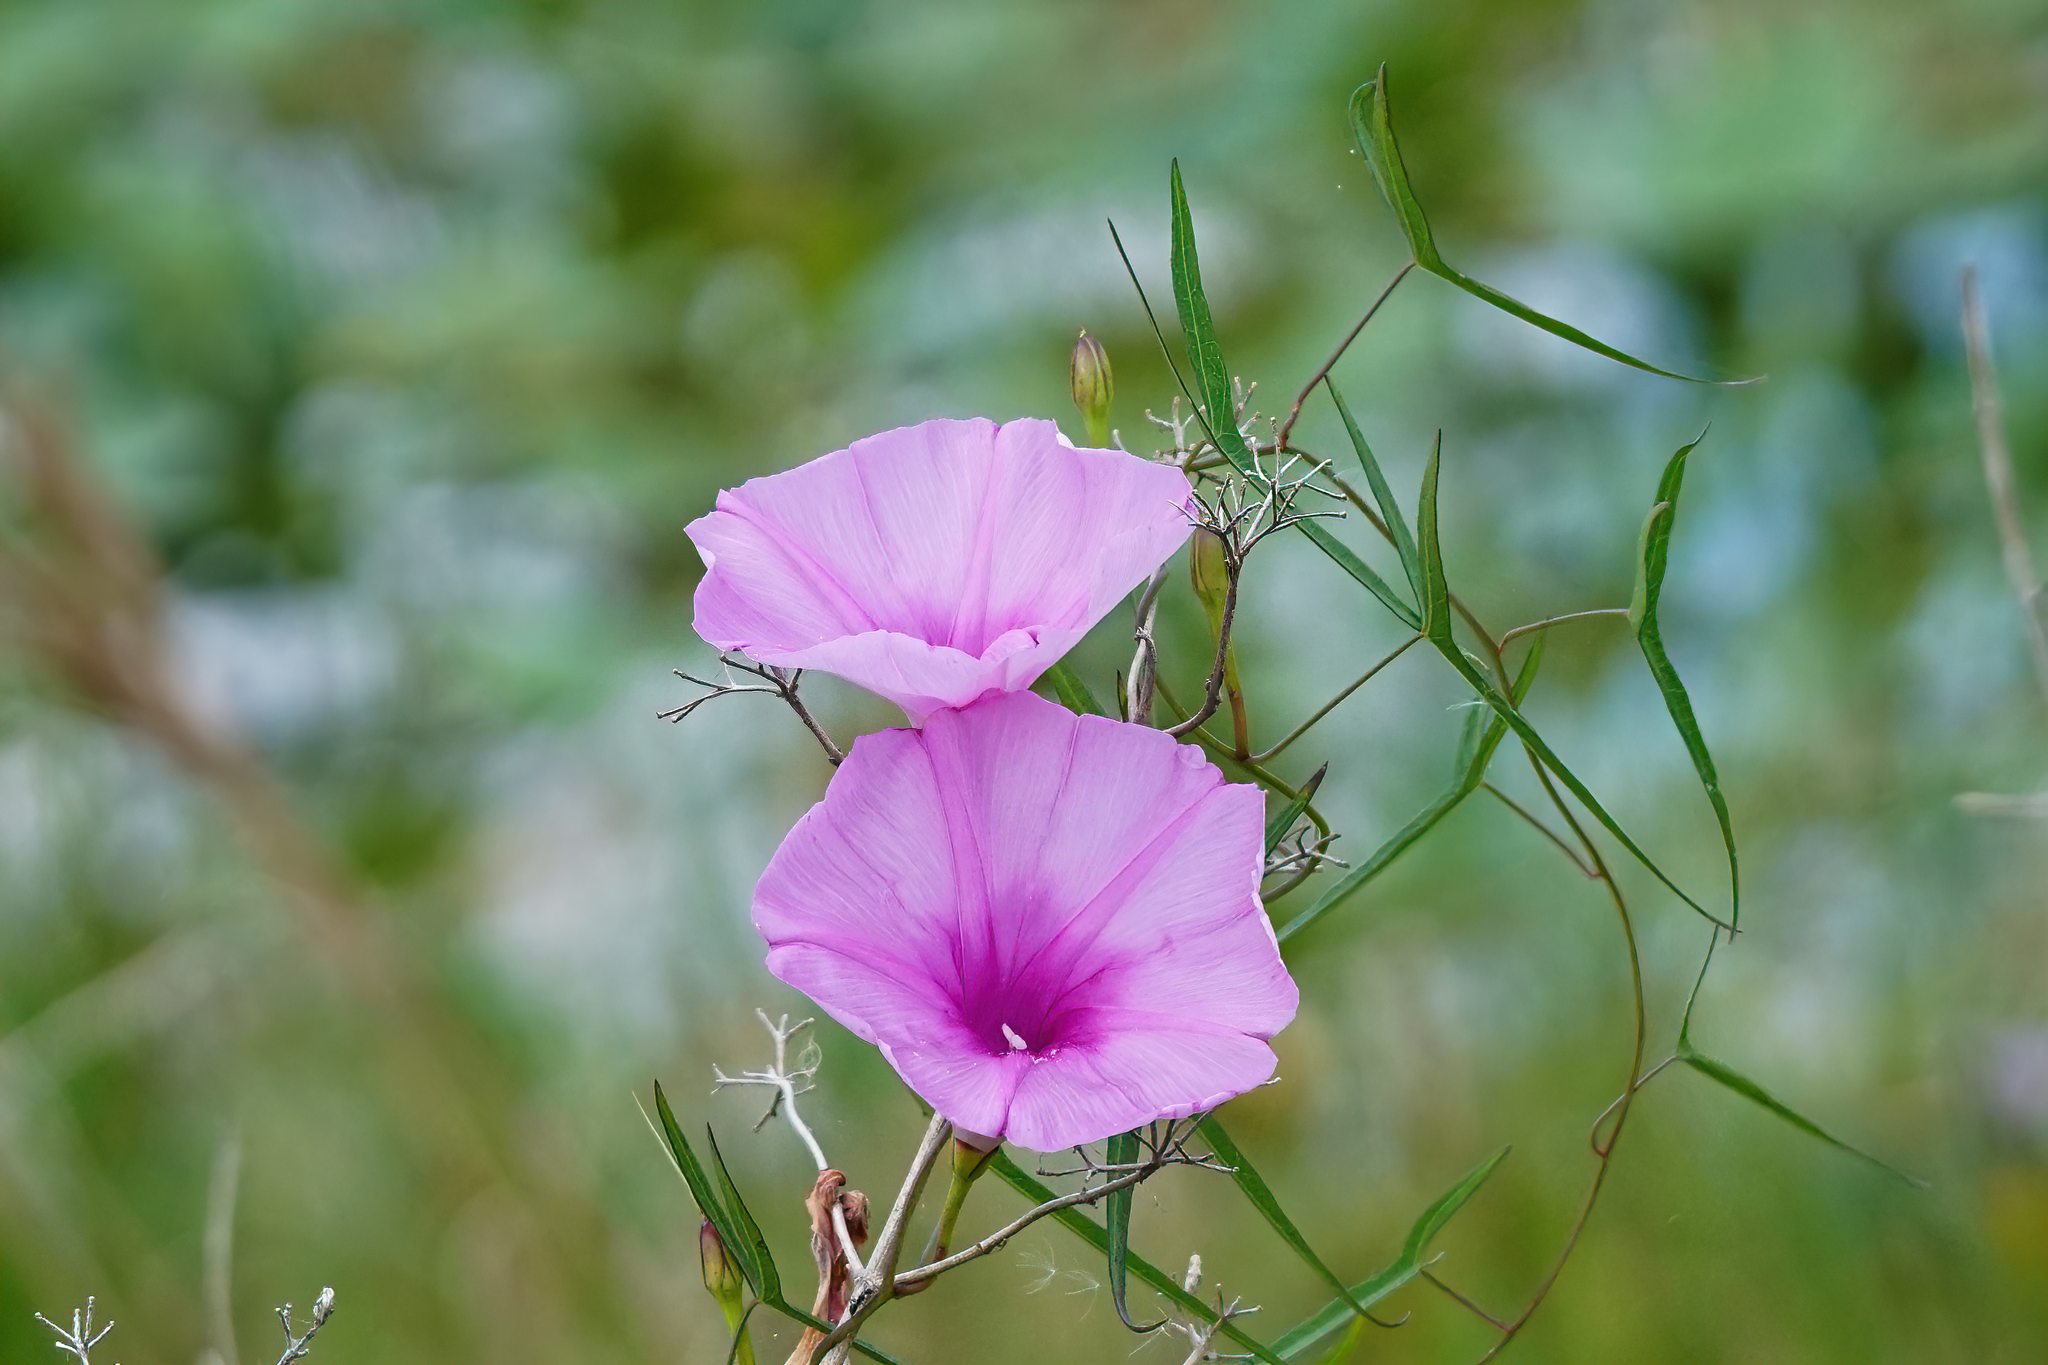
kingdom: Plantae
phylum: Tracheophyta
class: Magnoliopsida
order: Solanales
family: Convolvulaceae
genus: Ipomoea
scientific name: Ipomoea sagittata
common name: Saltmarsh morning glory
